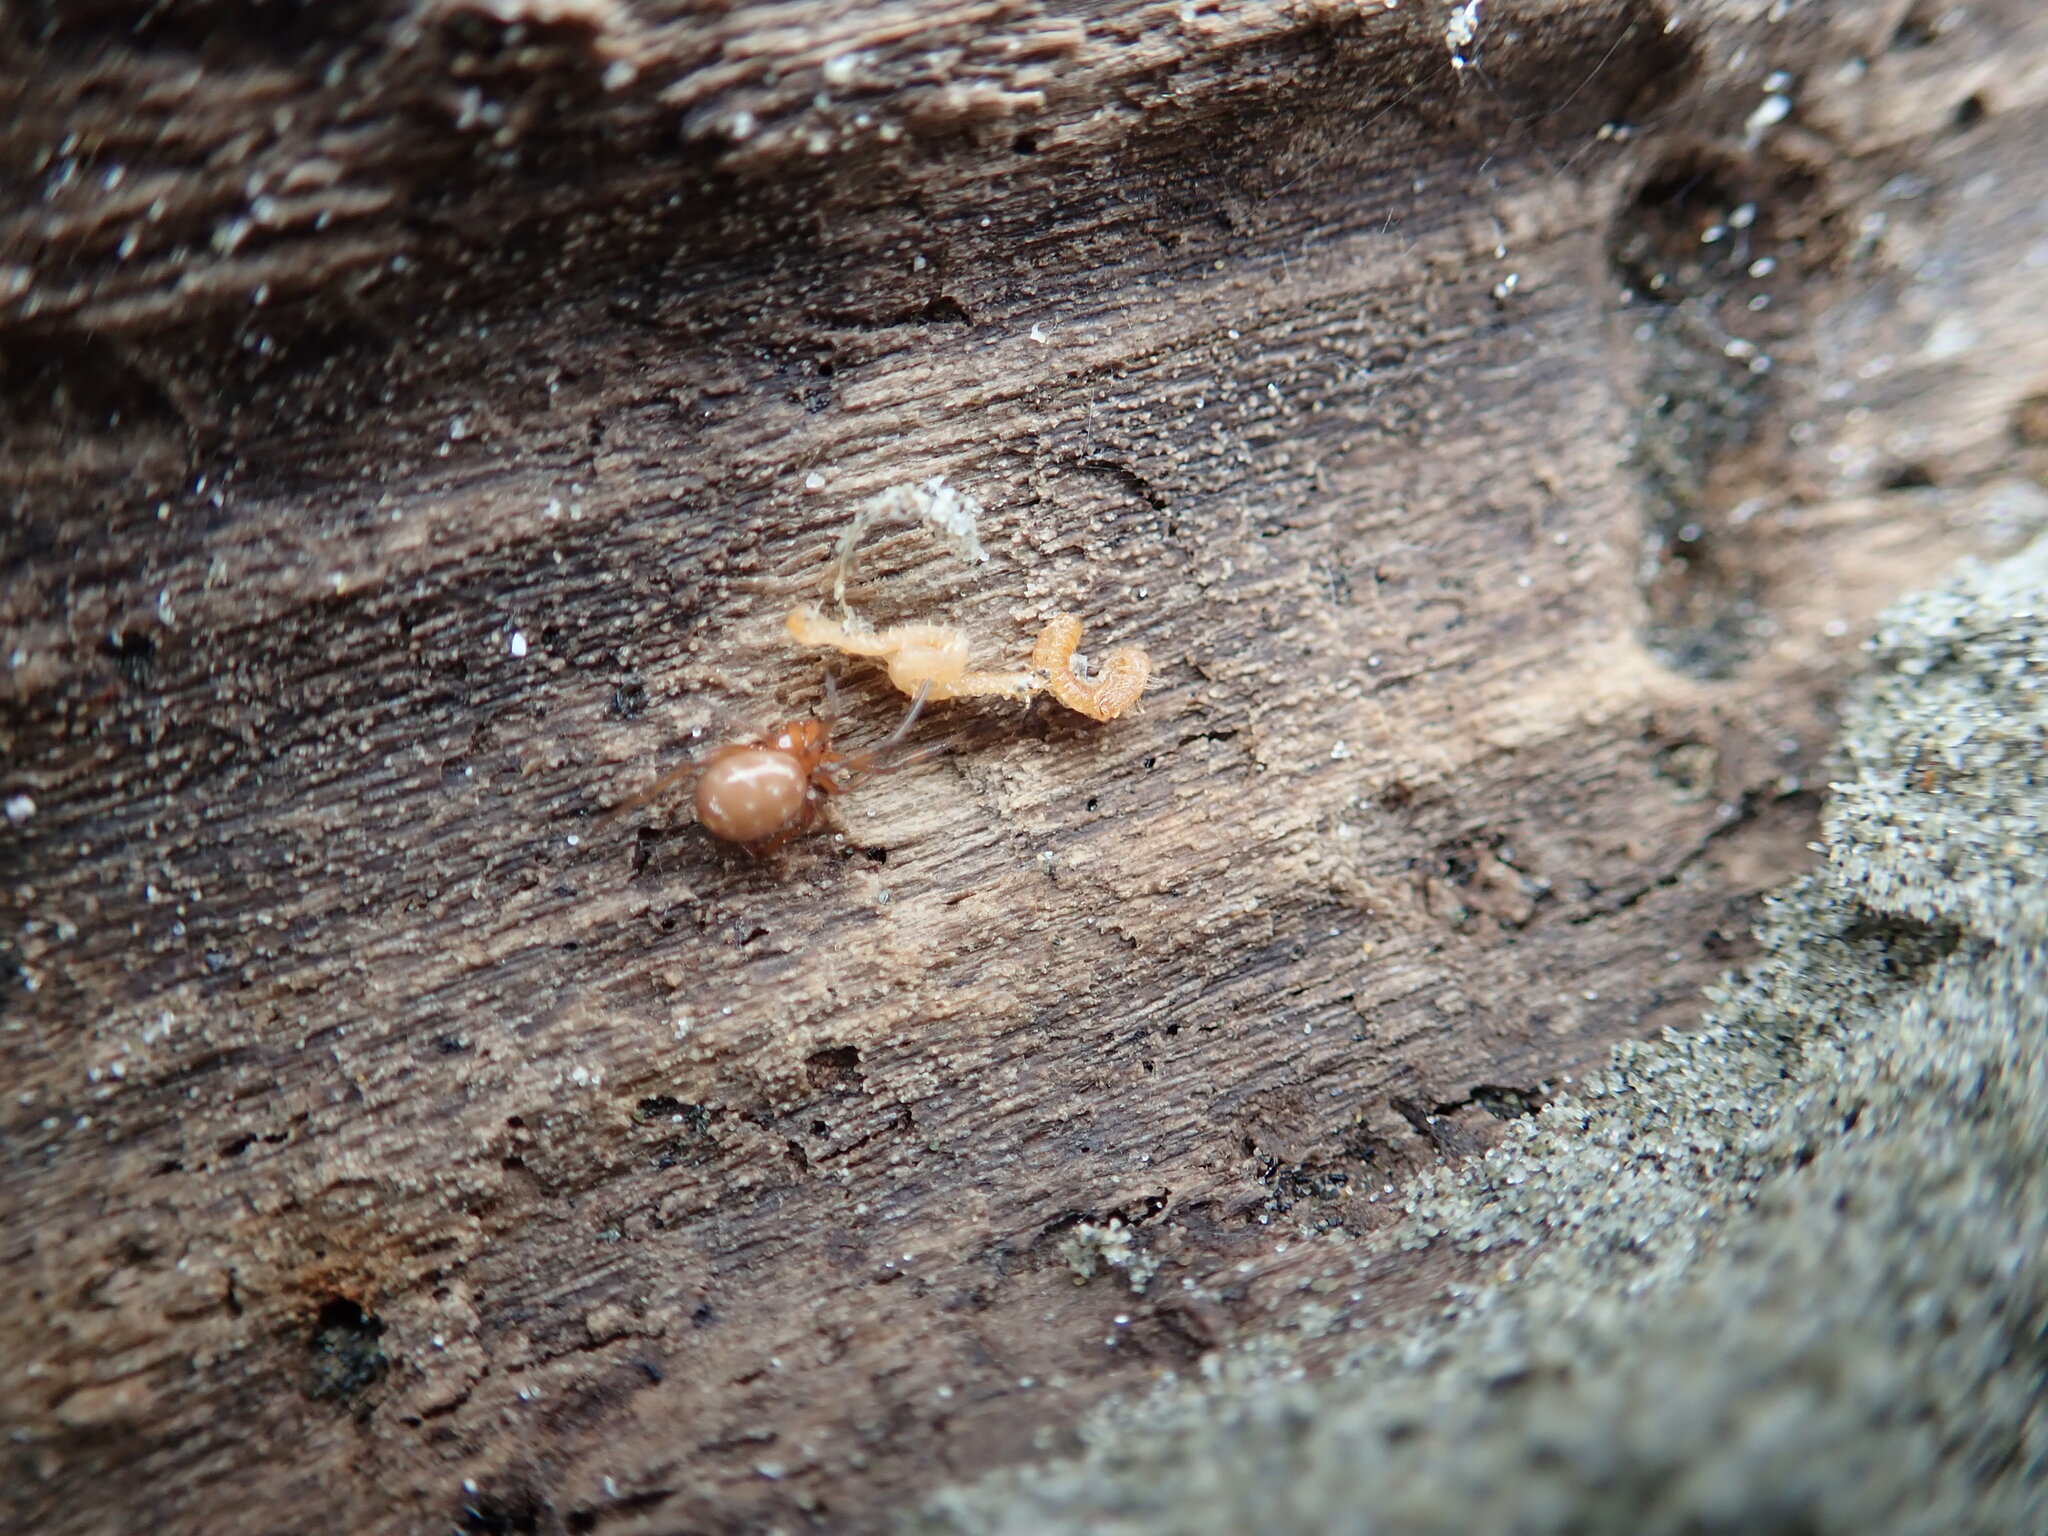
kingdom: Animalia
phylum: Arthropoda
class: Arachnida
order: Araneae
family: Theridiidae
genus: Steatoda
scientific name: Steatoda capensis
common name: Cobweb weaver
